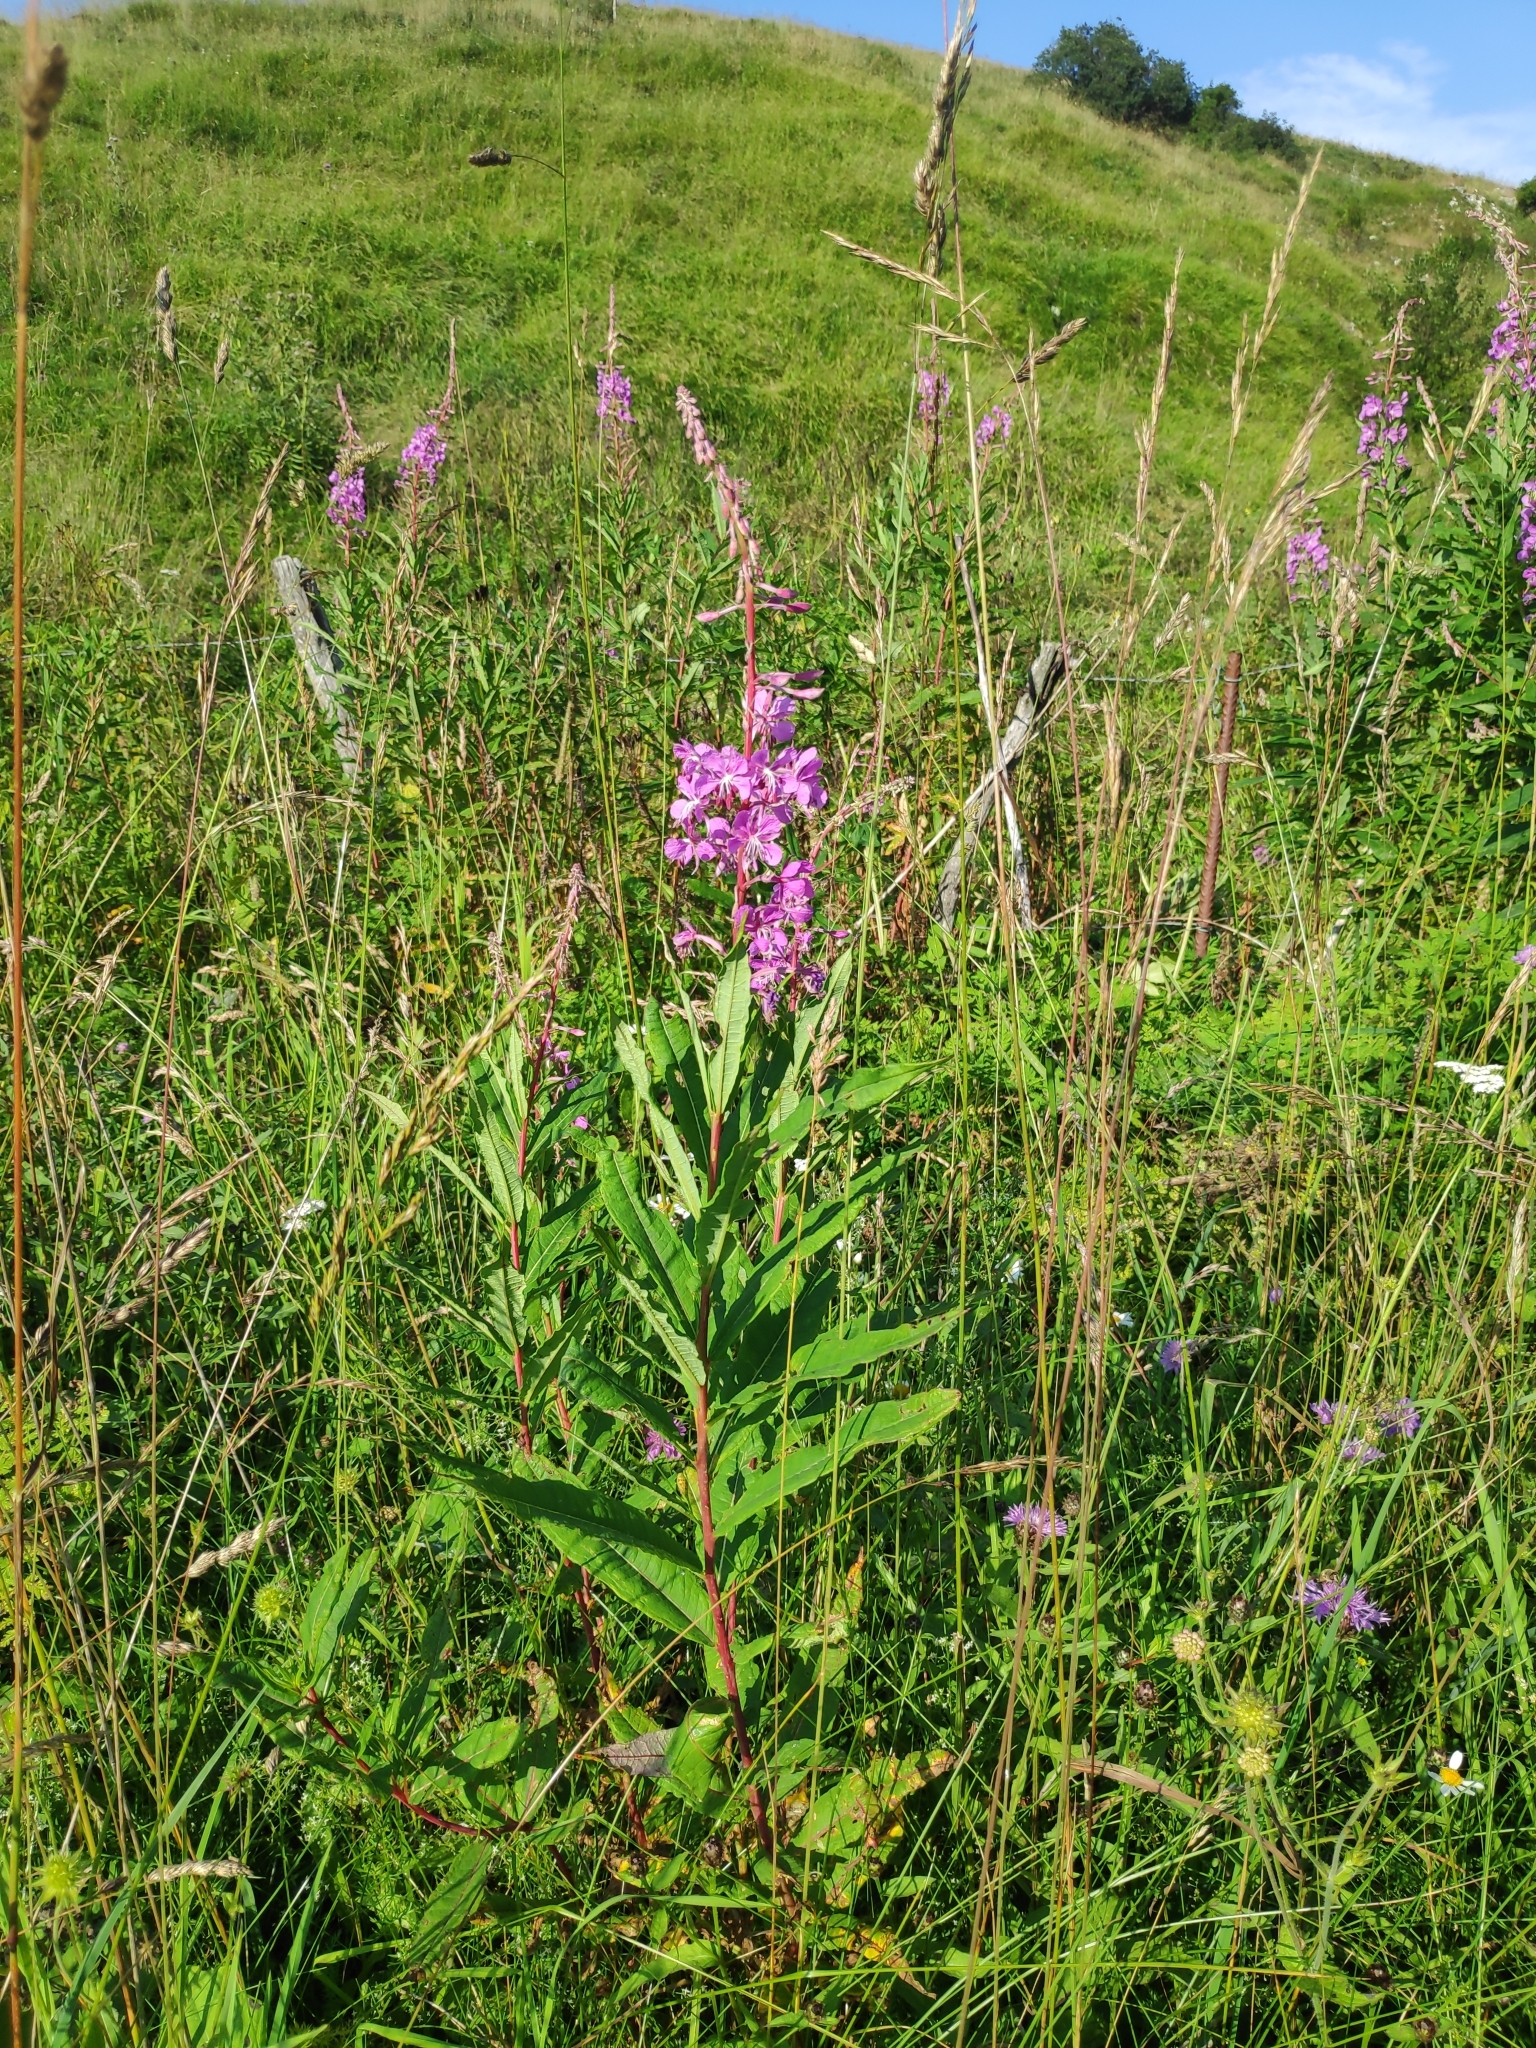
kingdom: Plantae
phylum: Tracheophyta
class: Magnoliopsida
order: Myrtales
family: Onagraceae
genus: Chamaenerion
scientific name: Chamaenerion angustifolium
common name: Fireweed
